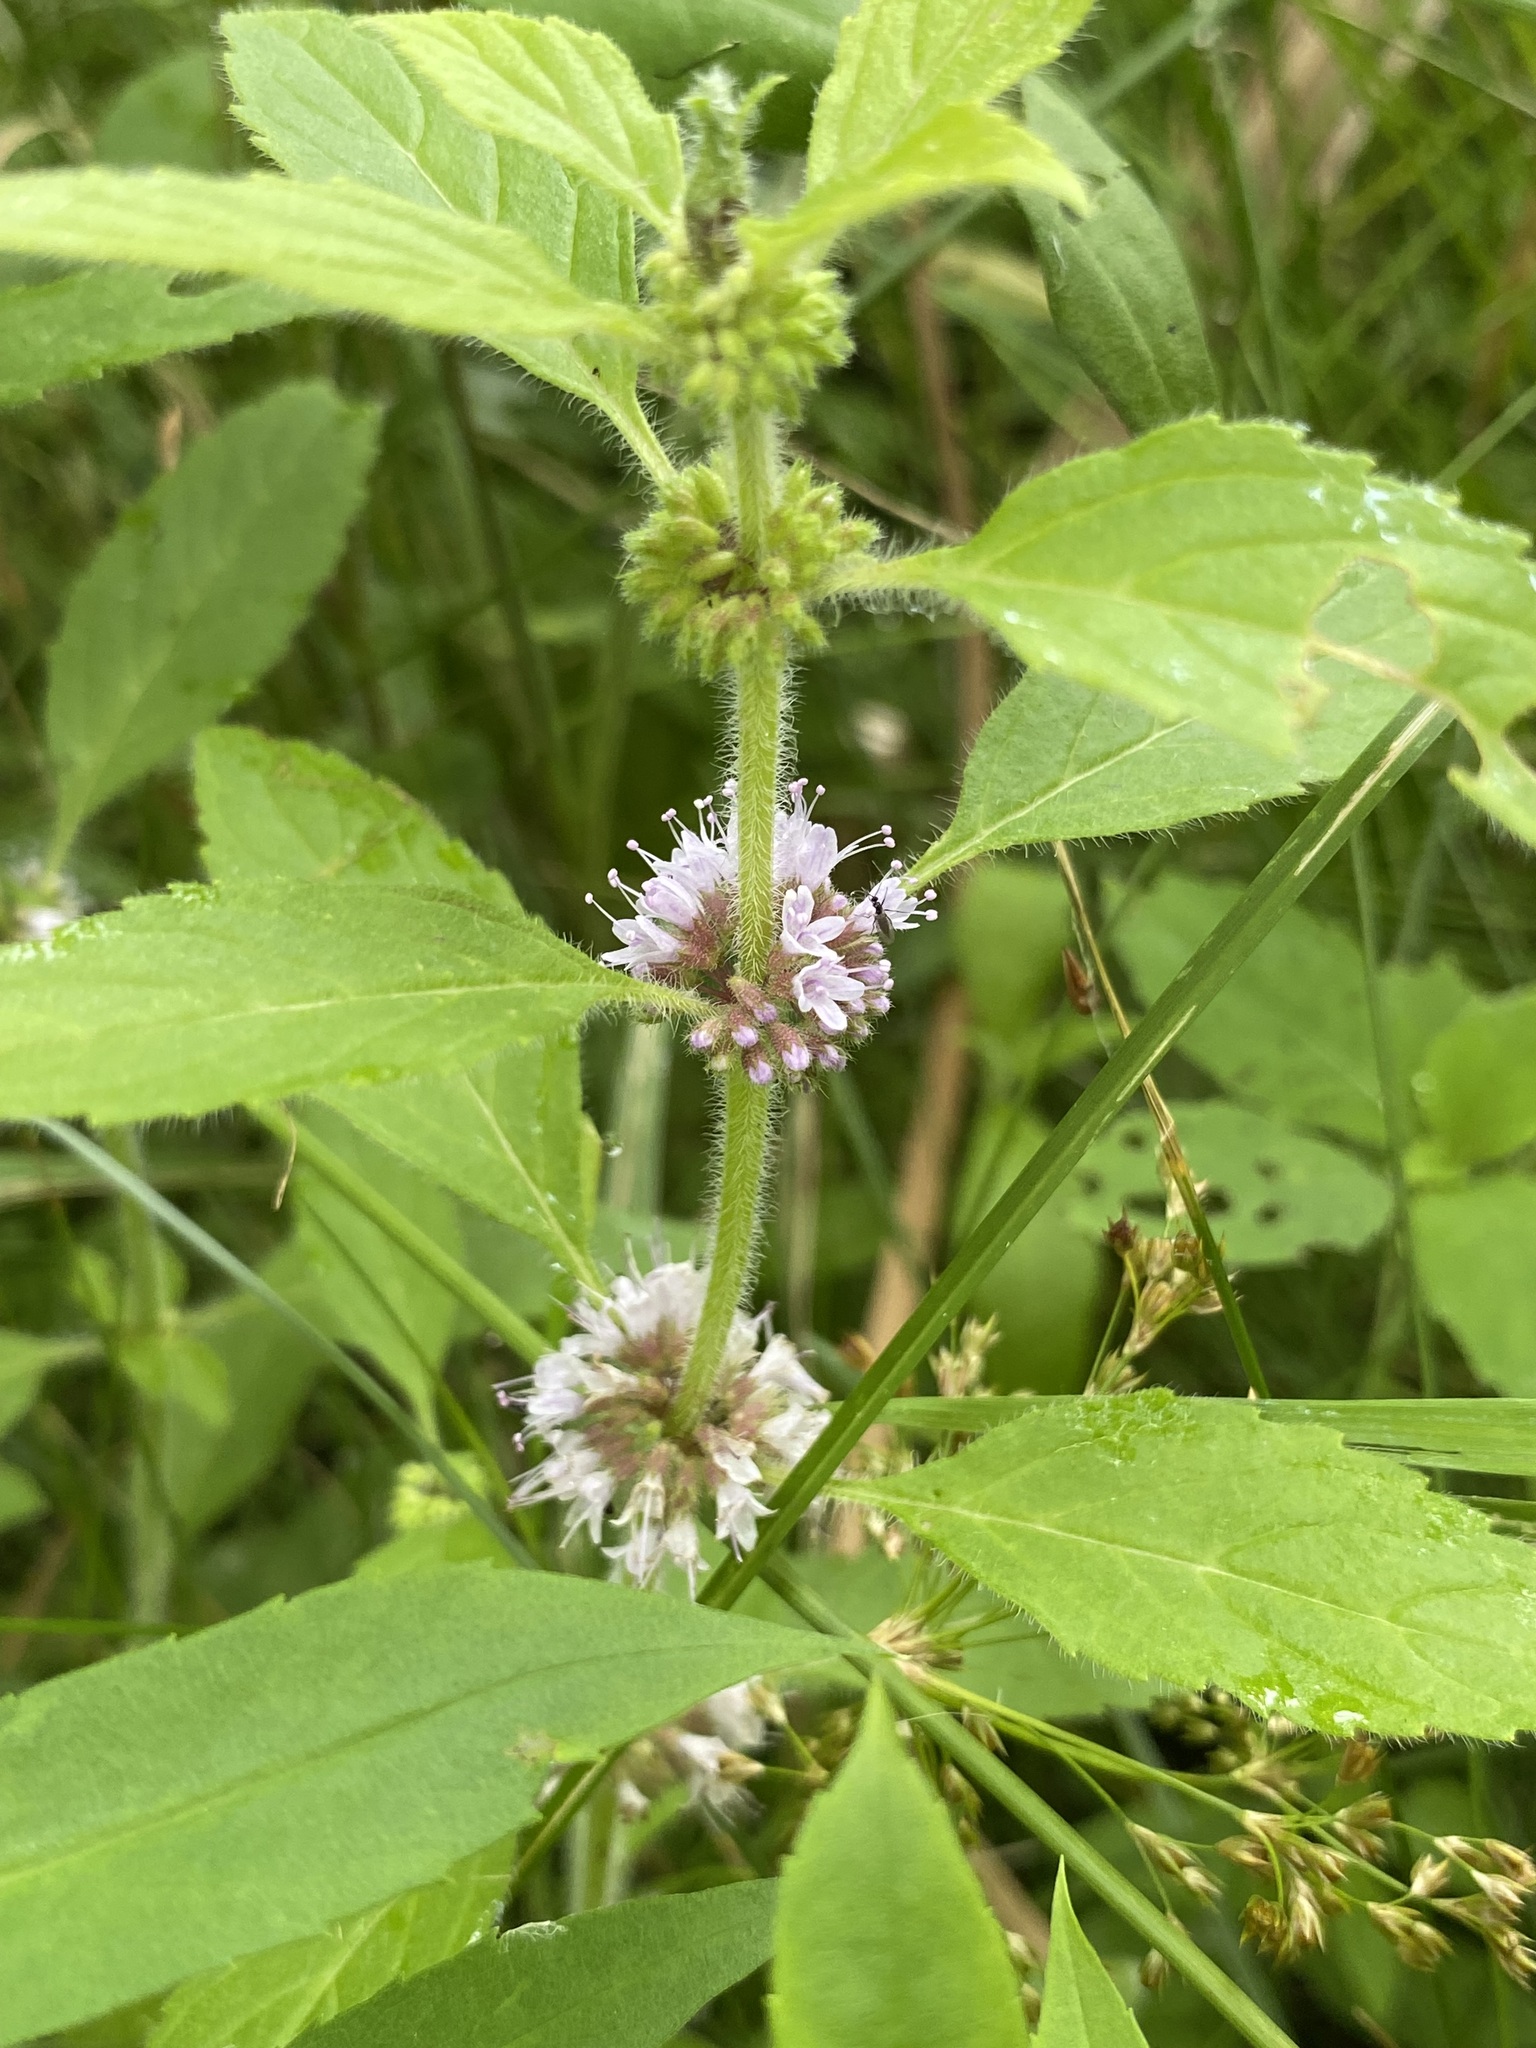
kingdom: Plantae
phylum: Tracheophyta
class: Magnoliopsida
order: Lamiales
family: Lamiaceae
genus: Mentha
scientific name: Mentha canadensis
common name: American corn mint
